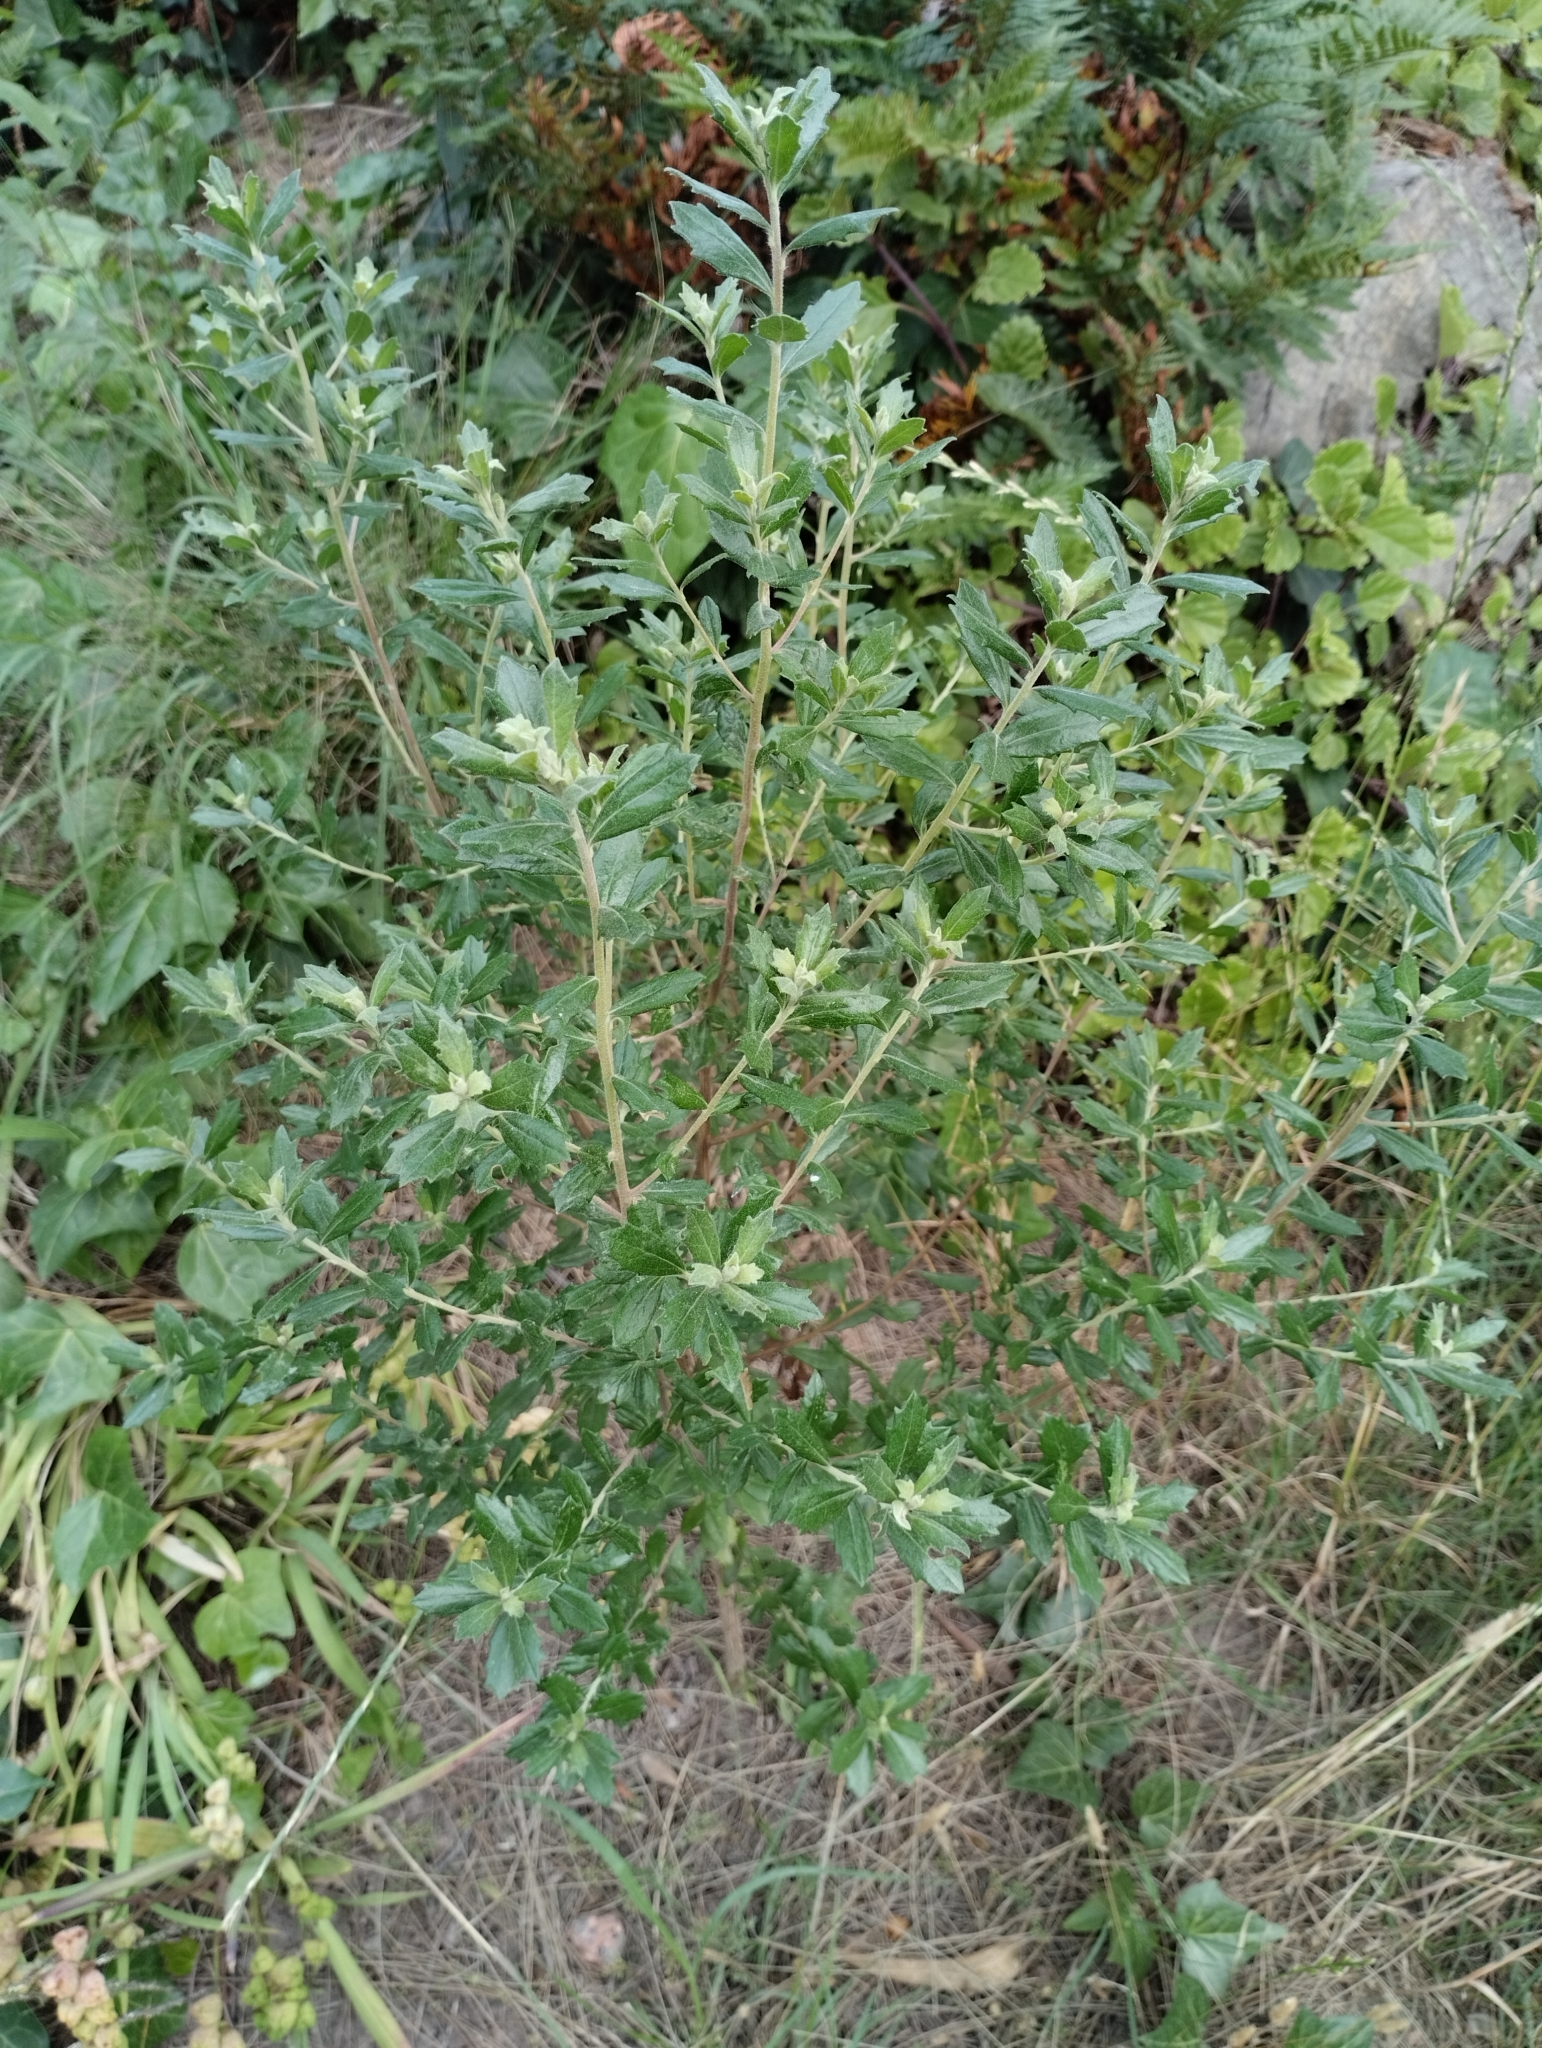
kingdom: Plantae
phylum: Tracheophyta
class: Magnoliopsida
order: Asterales
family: Asteraceae
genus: Baccharis
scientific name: Baccharis dracunculifolia
